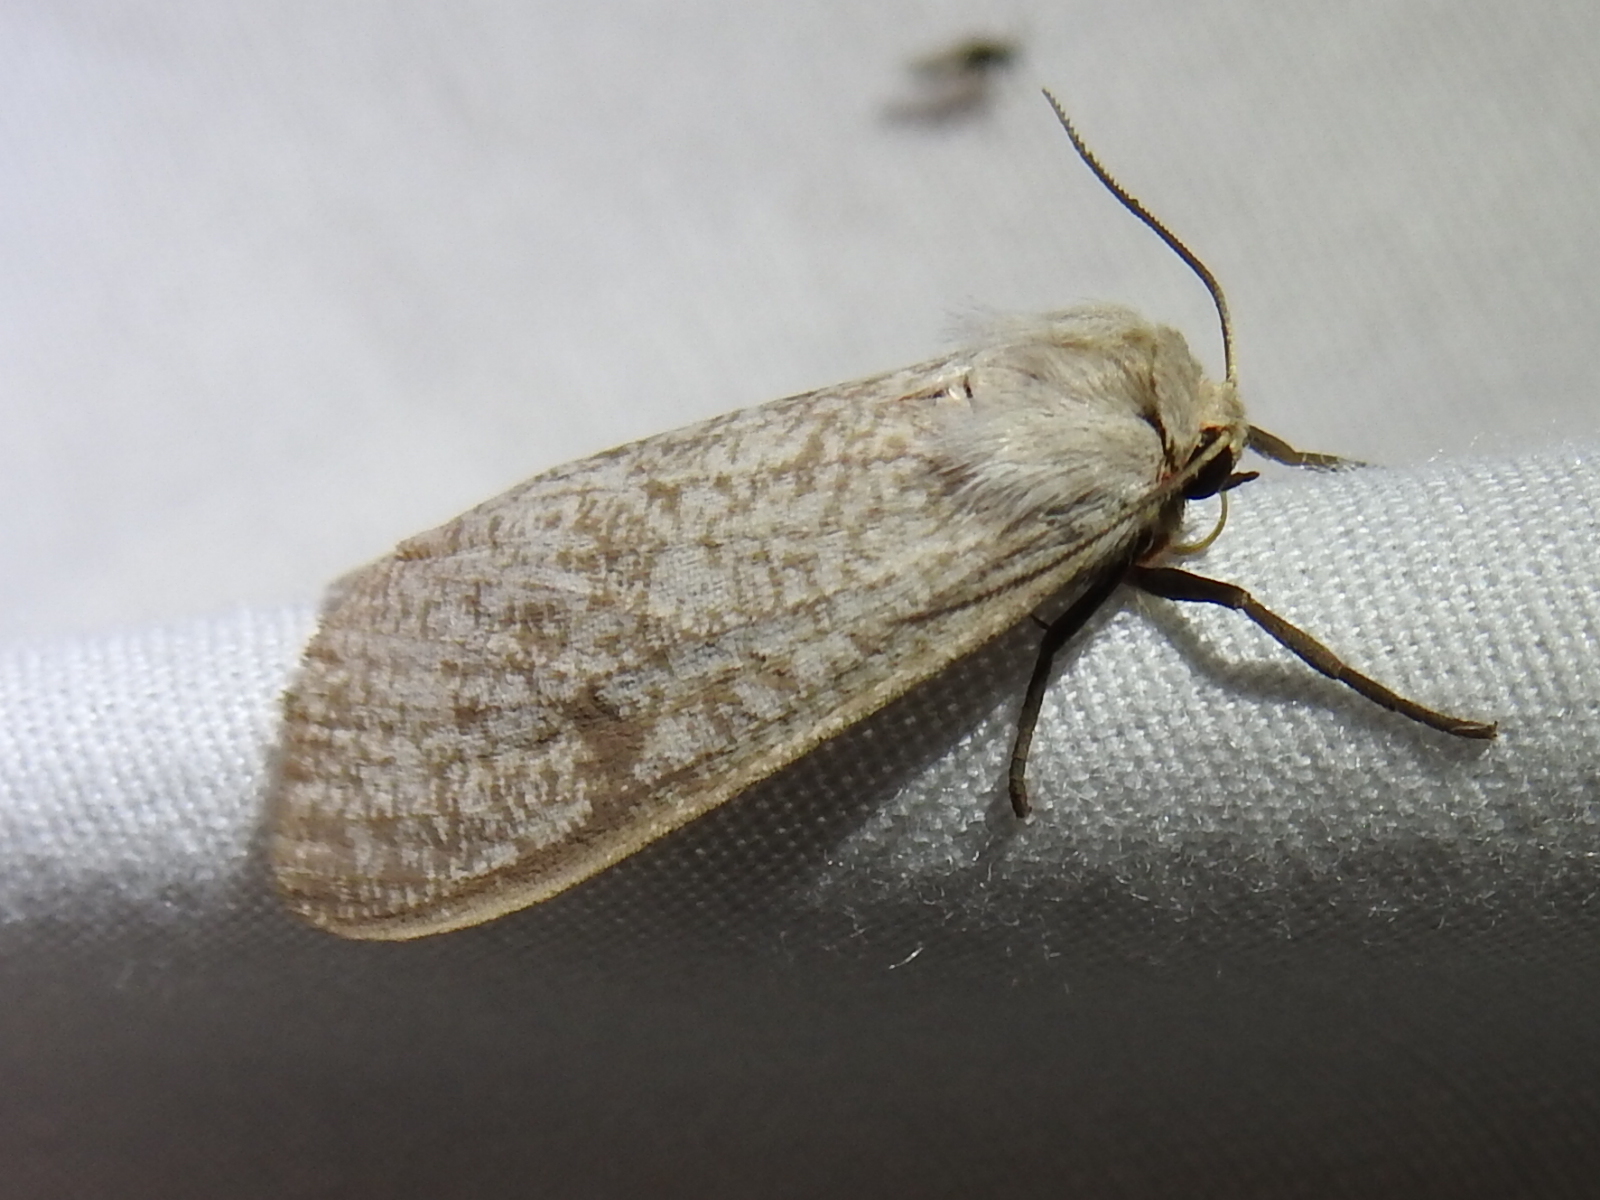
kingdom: Animalia
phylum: Arthropoda
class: Insecta
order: Lepidoptera
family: Erebidae
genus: Euchaetes
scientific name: Euchaetes bolteri
